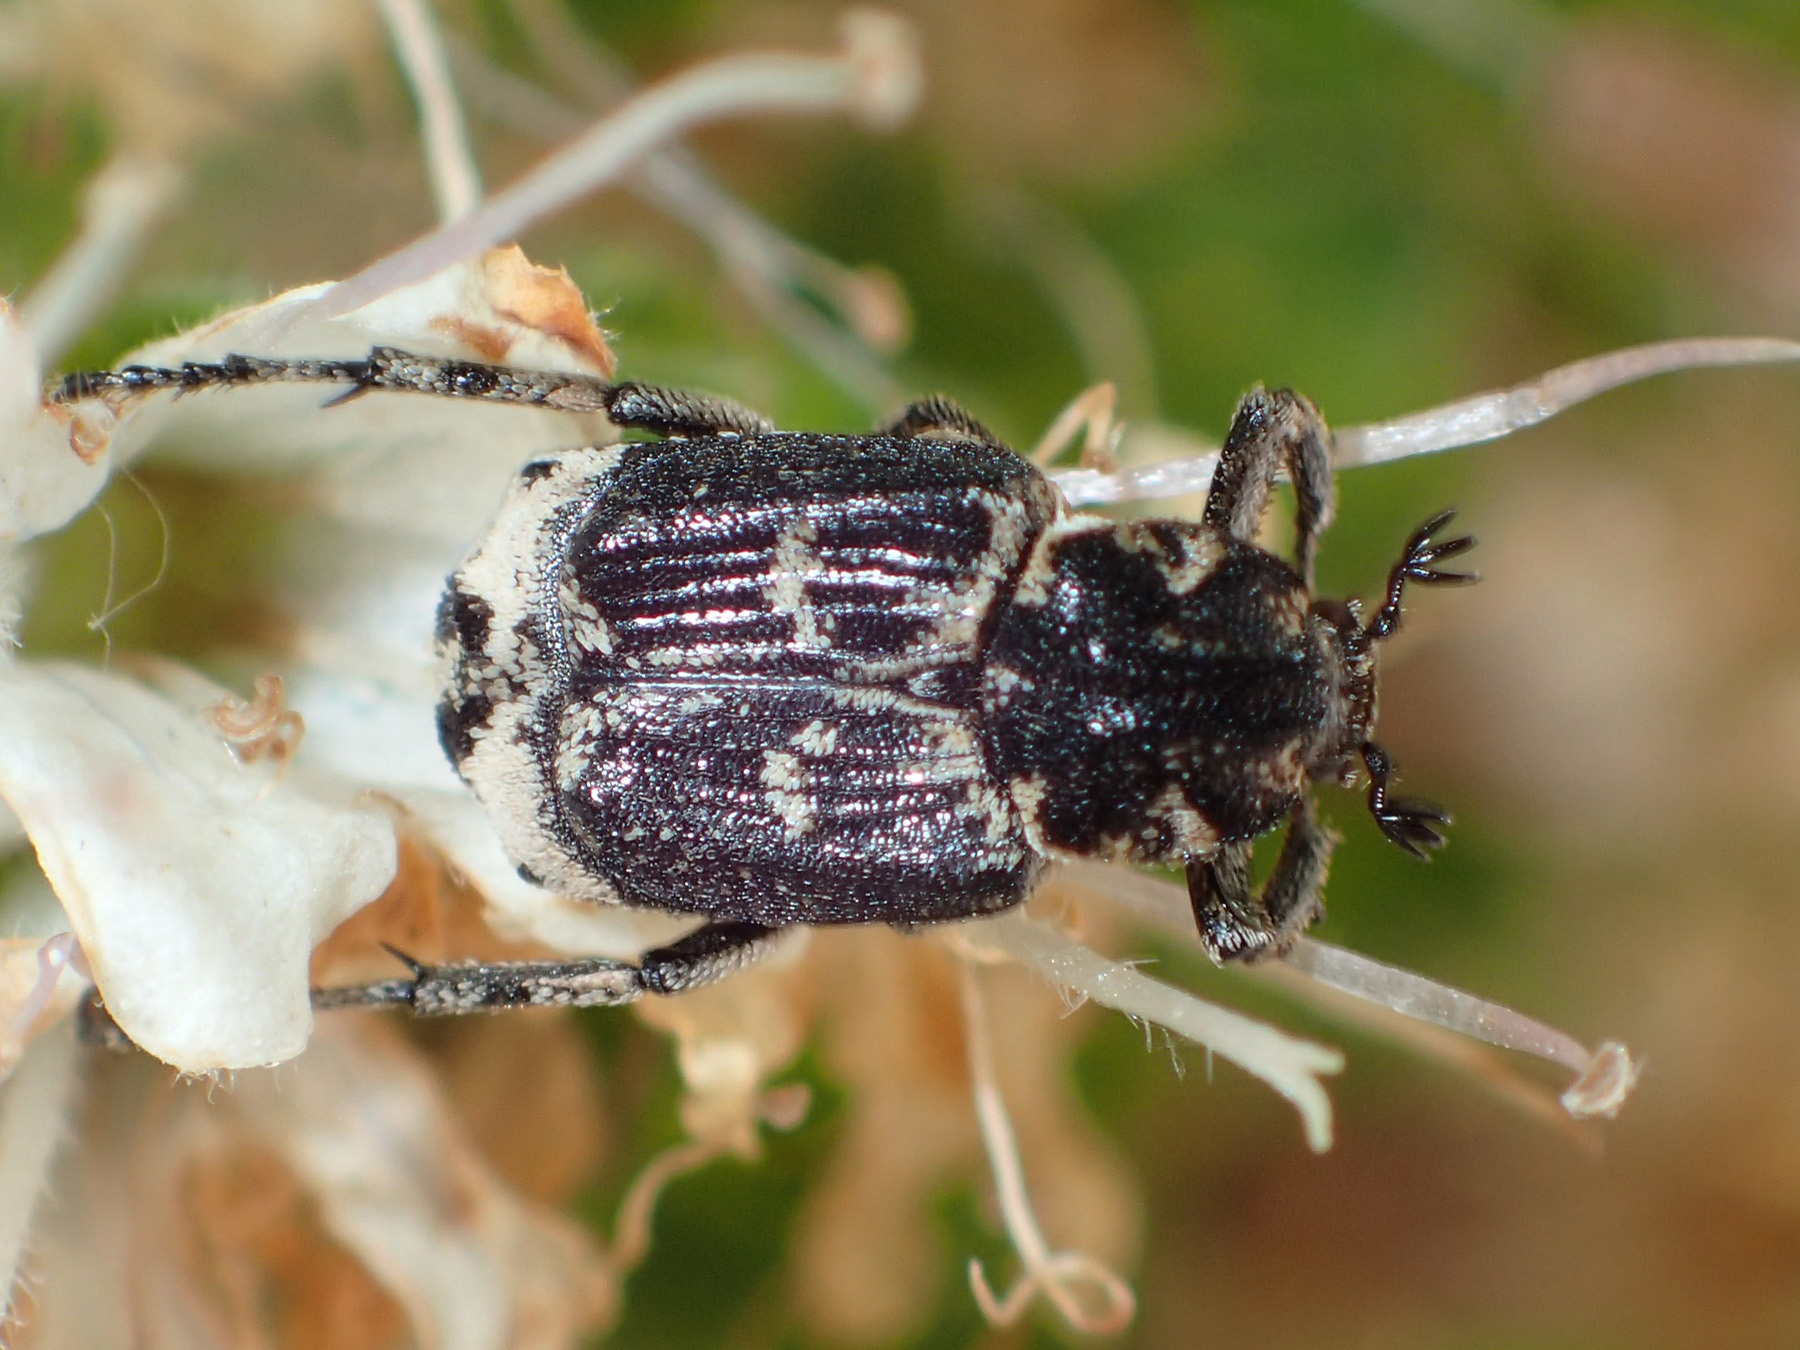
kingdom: Animalia
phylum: Arthropoda
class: Insecta
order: Coleoptera
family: Scarabaeidae
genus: Valgus
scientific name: Valgus hemipterus
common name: Bug flower chafer
